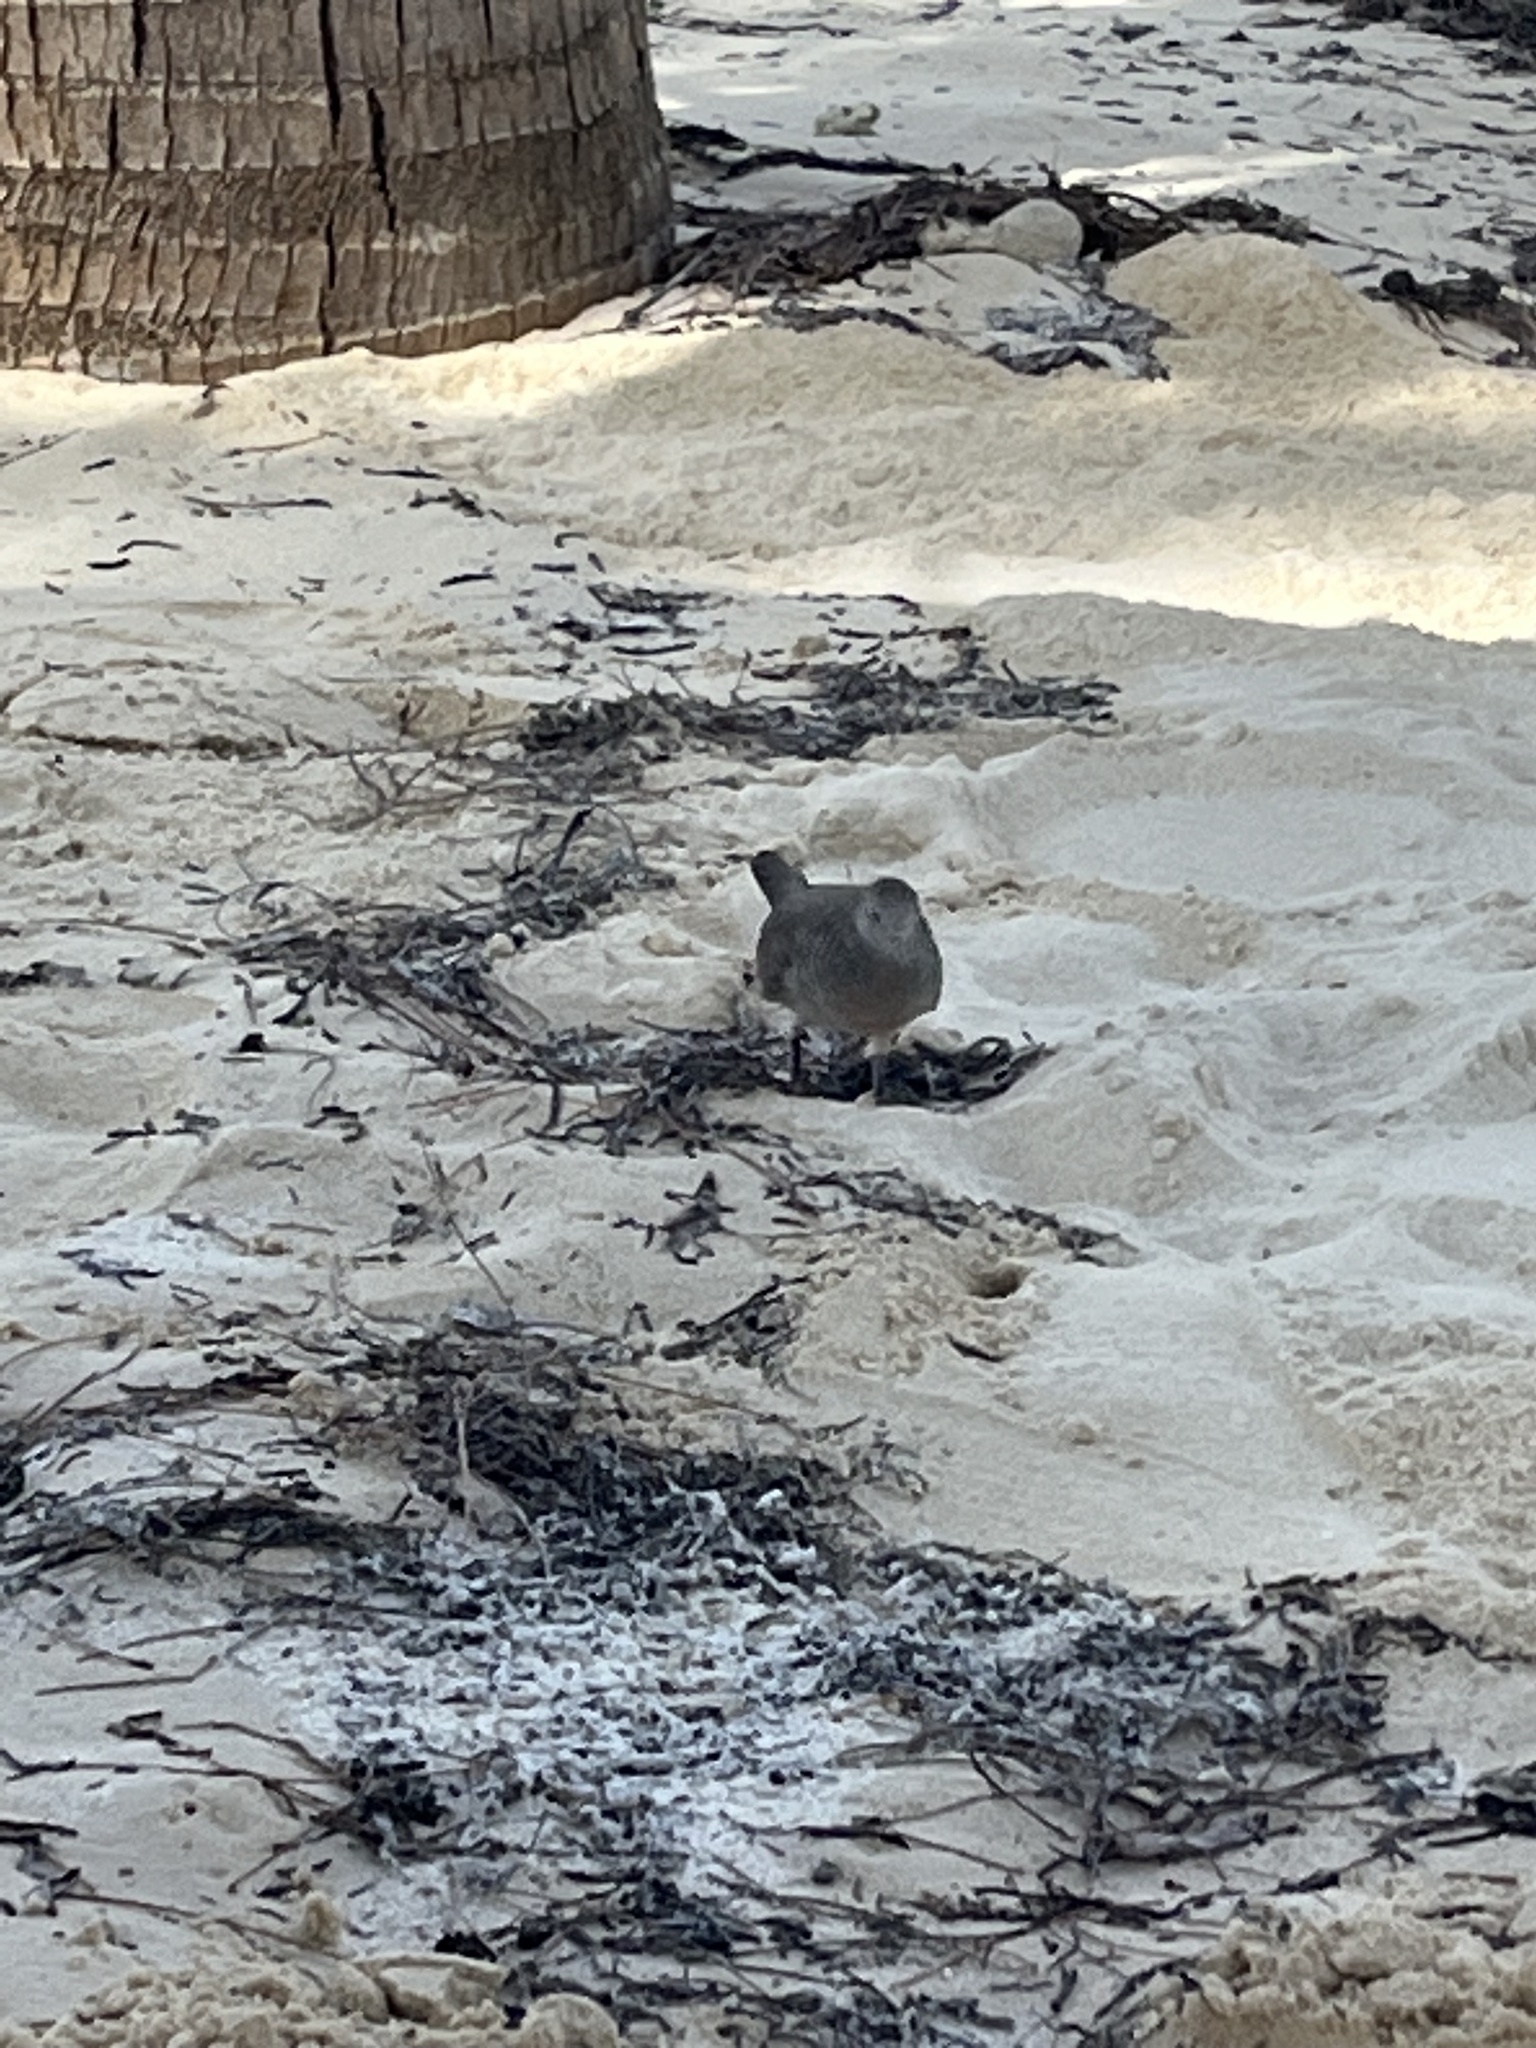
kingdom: Animalia
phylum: Chordata
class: Aves
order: Columbiformes
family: Columbidae
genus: Geopelia
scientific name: Geopelia striata
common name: Zebra dove
